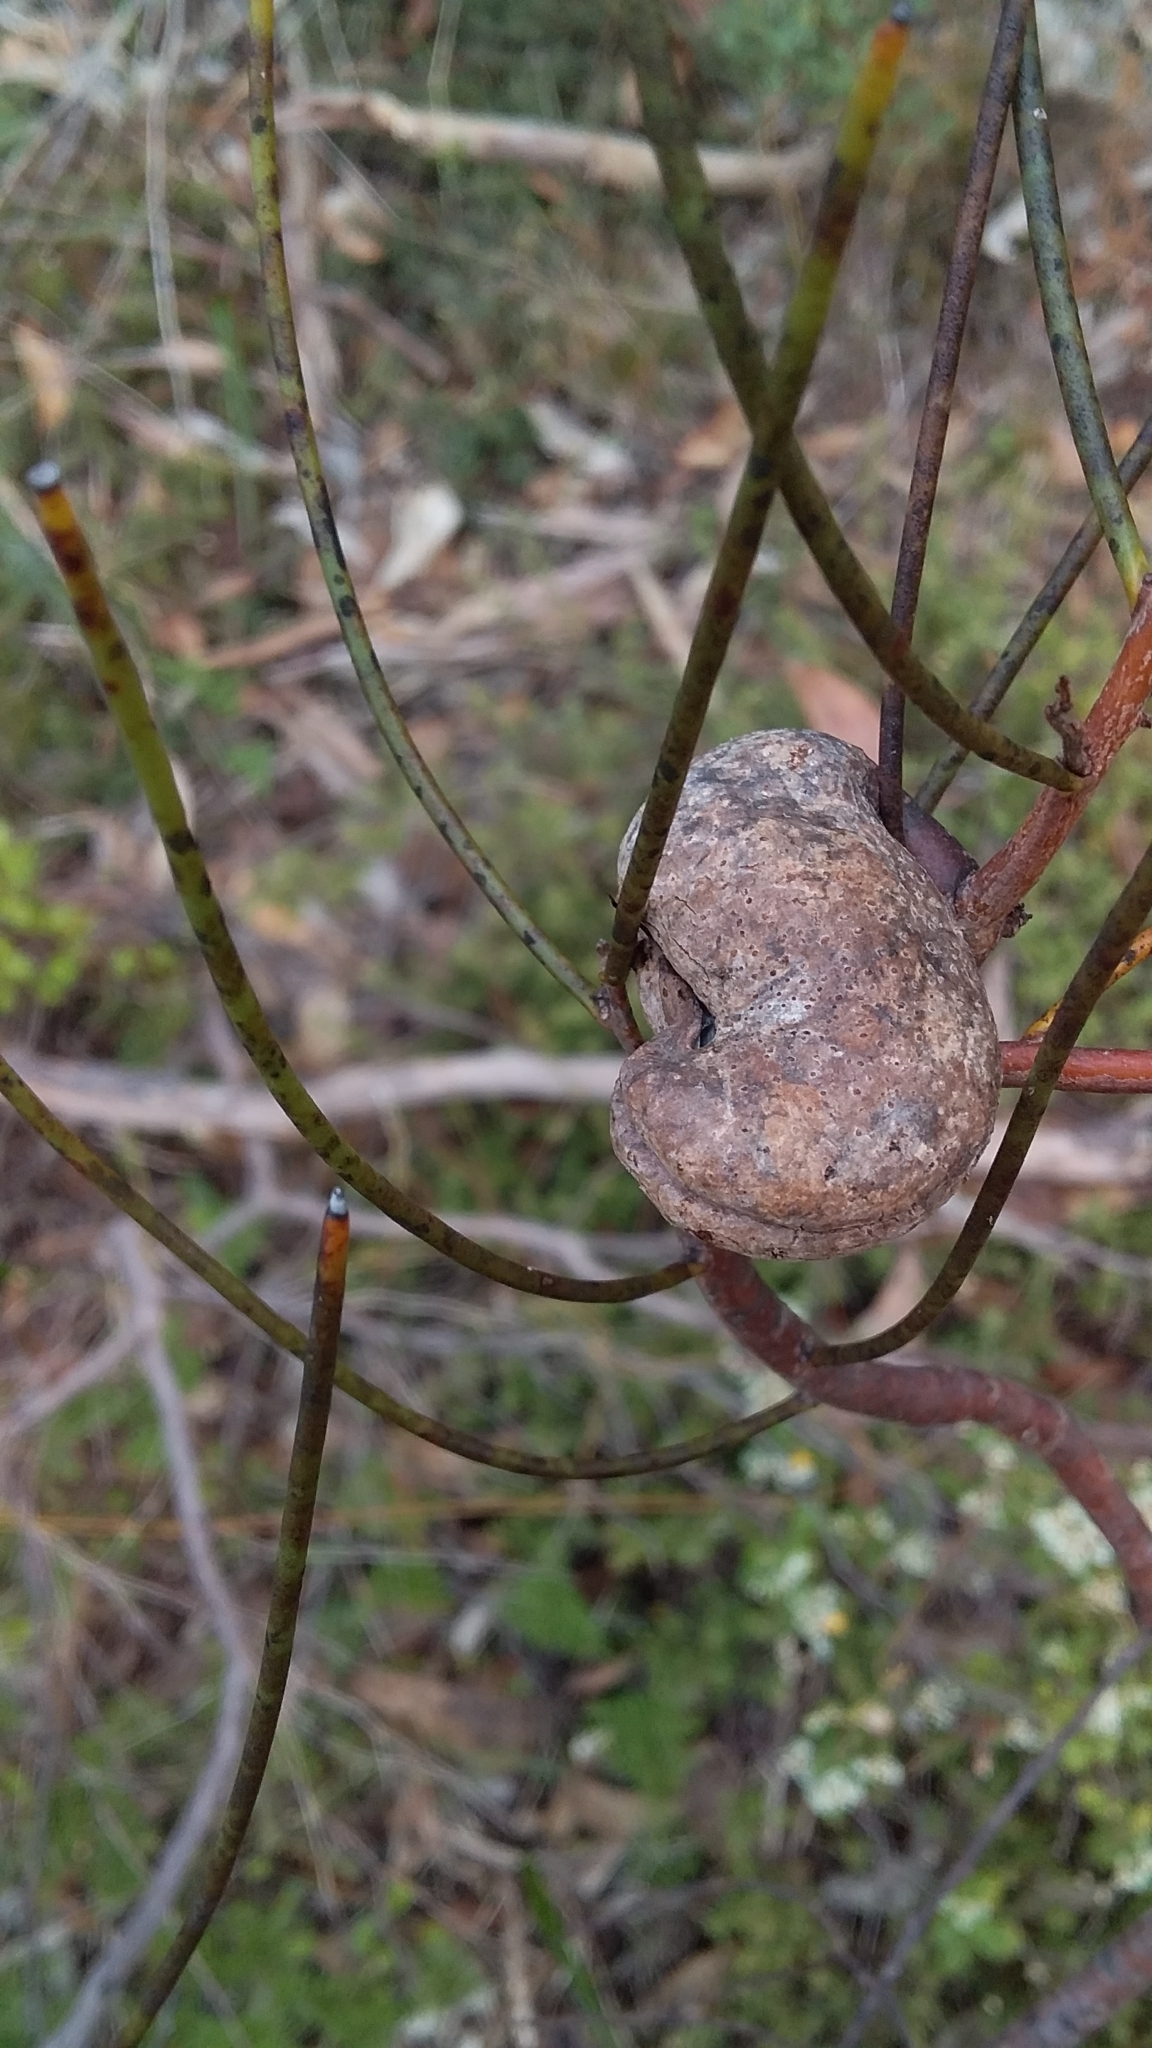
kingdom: Plantae
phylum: Tracheophyta
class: Magnoliopsida
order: Proteales
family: Proteaceae
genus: Hakea
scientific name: Hakea rostrata
